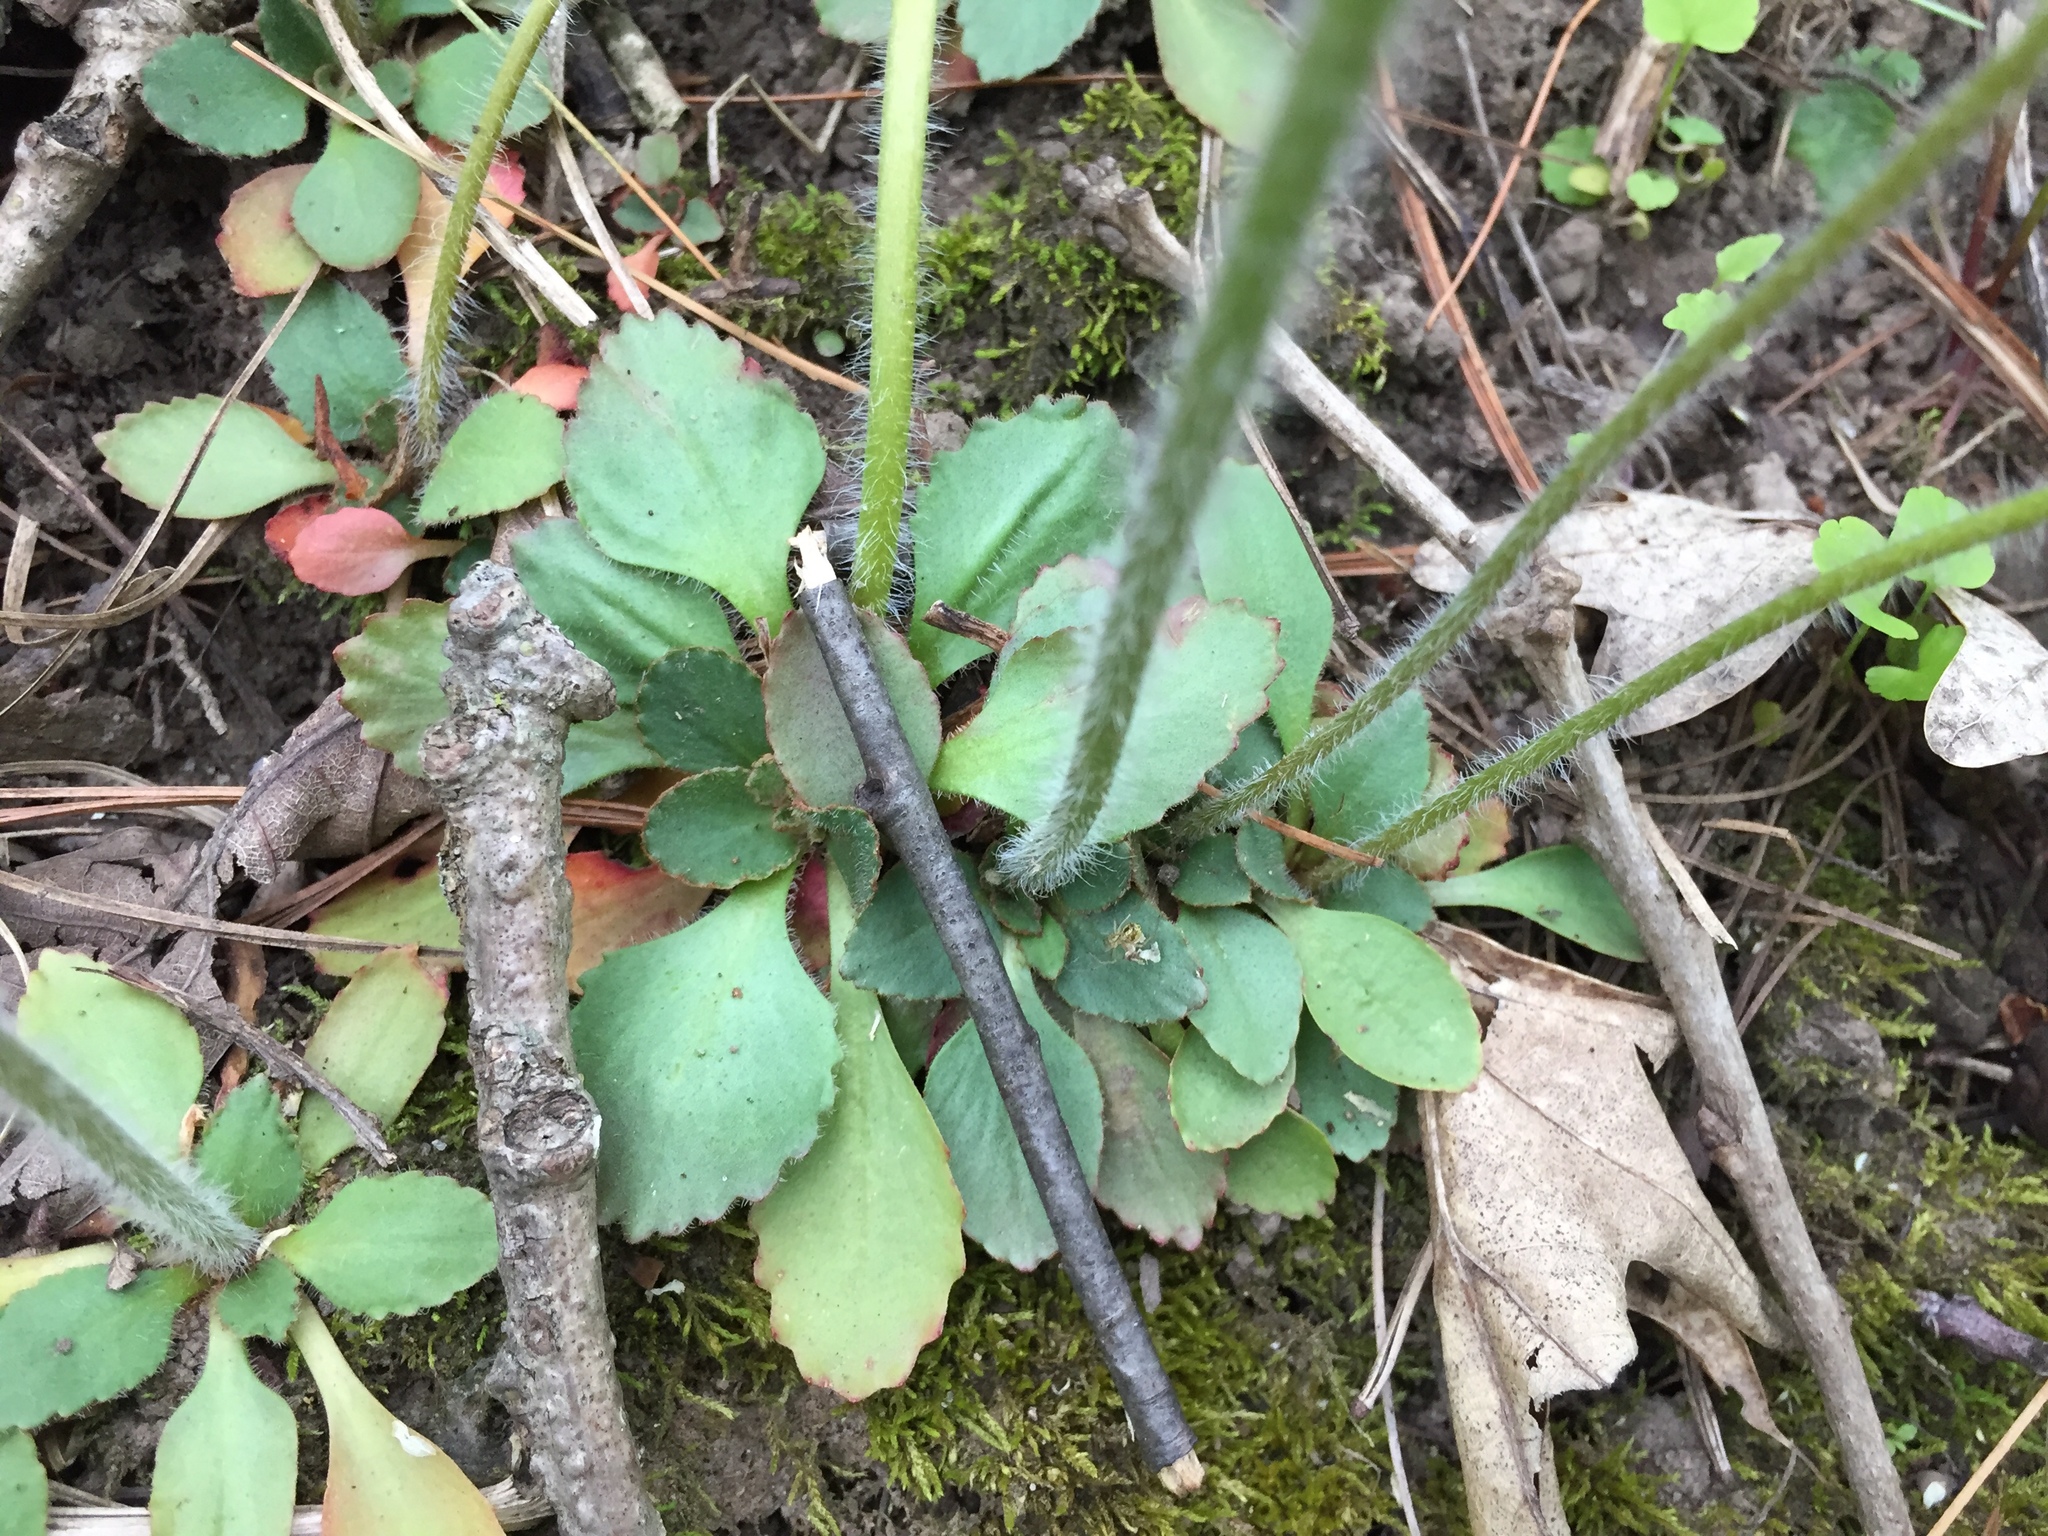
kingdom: Plantae
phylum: Tracheophyta
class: Magnoliopsida
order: Saxifragales
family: Saxifragaceae
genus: Micranthes
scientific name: Micranthes virginiensis
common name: Early saxifrage
